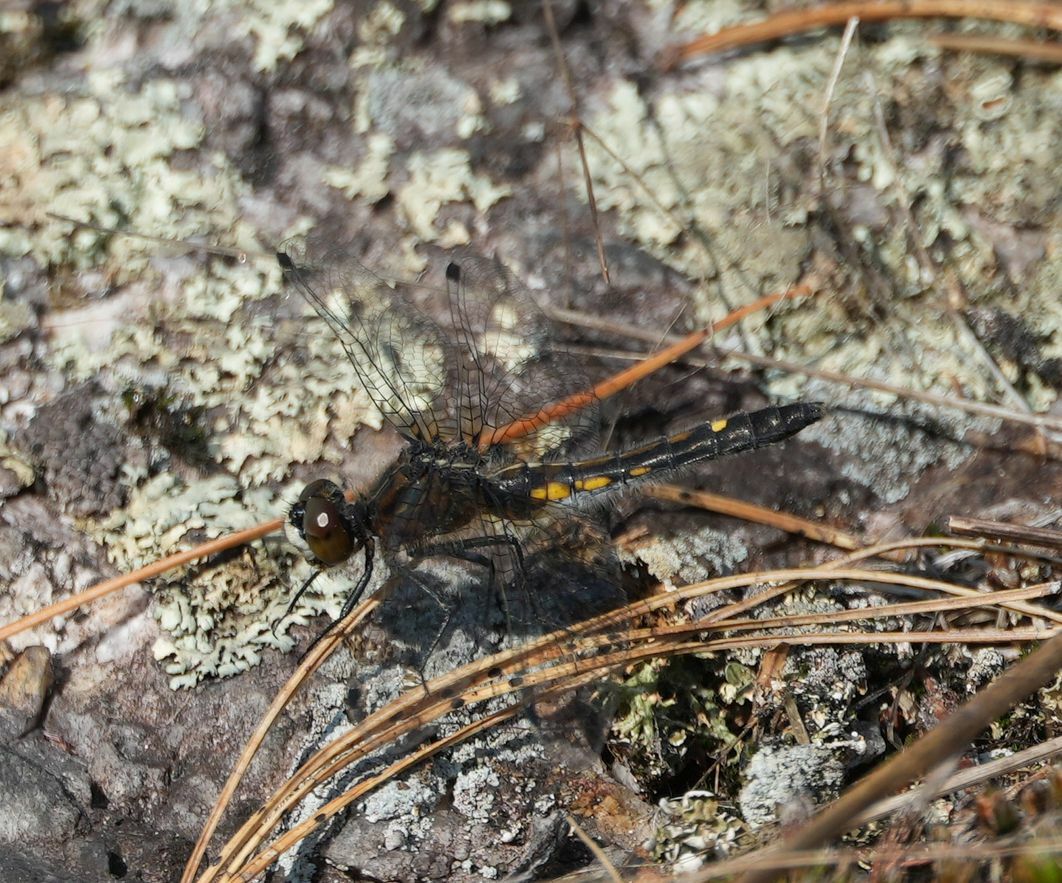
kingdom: Animalia
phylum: Arthropoda
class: Insecta
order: Odonata
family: Libellulidae
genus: Leucorrhinia
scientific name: Leucorrhinia intacta
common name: Dot-tailed whiteface
